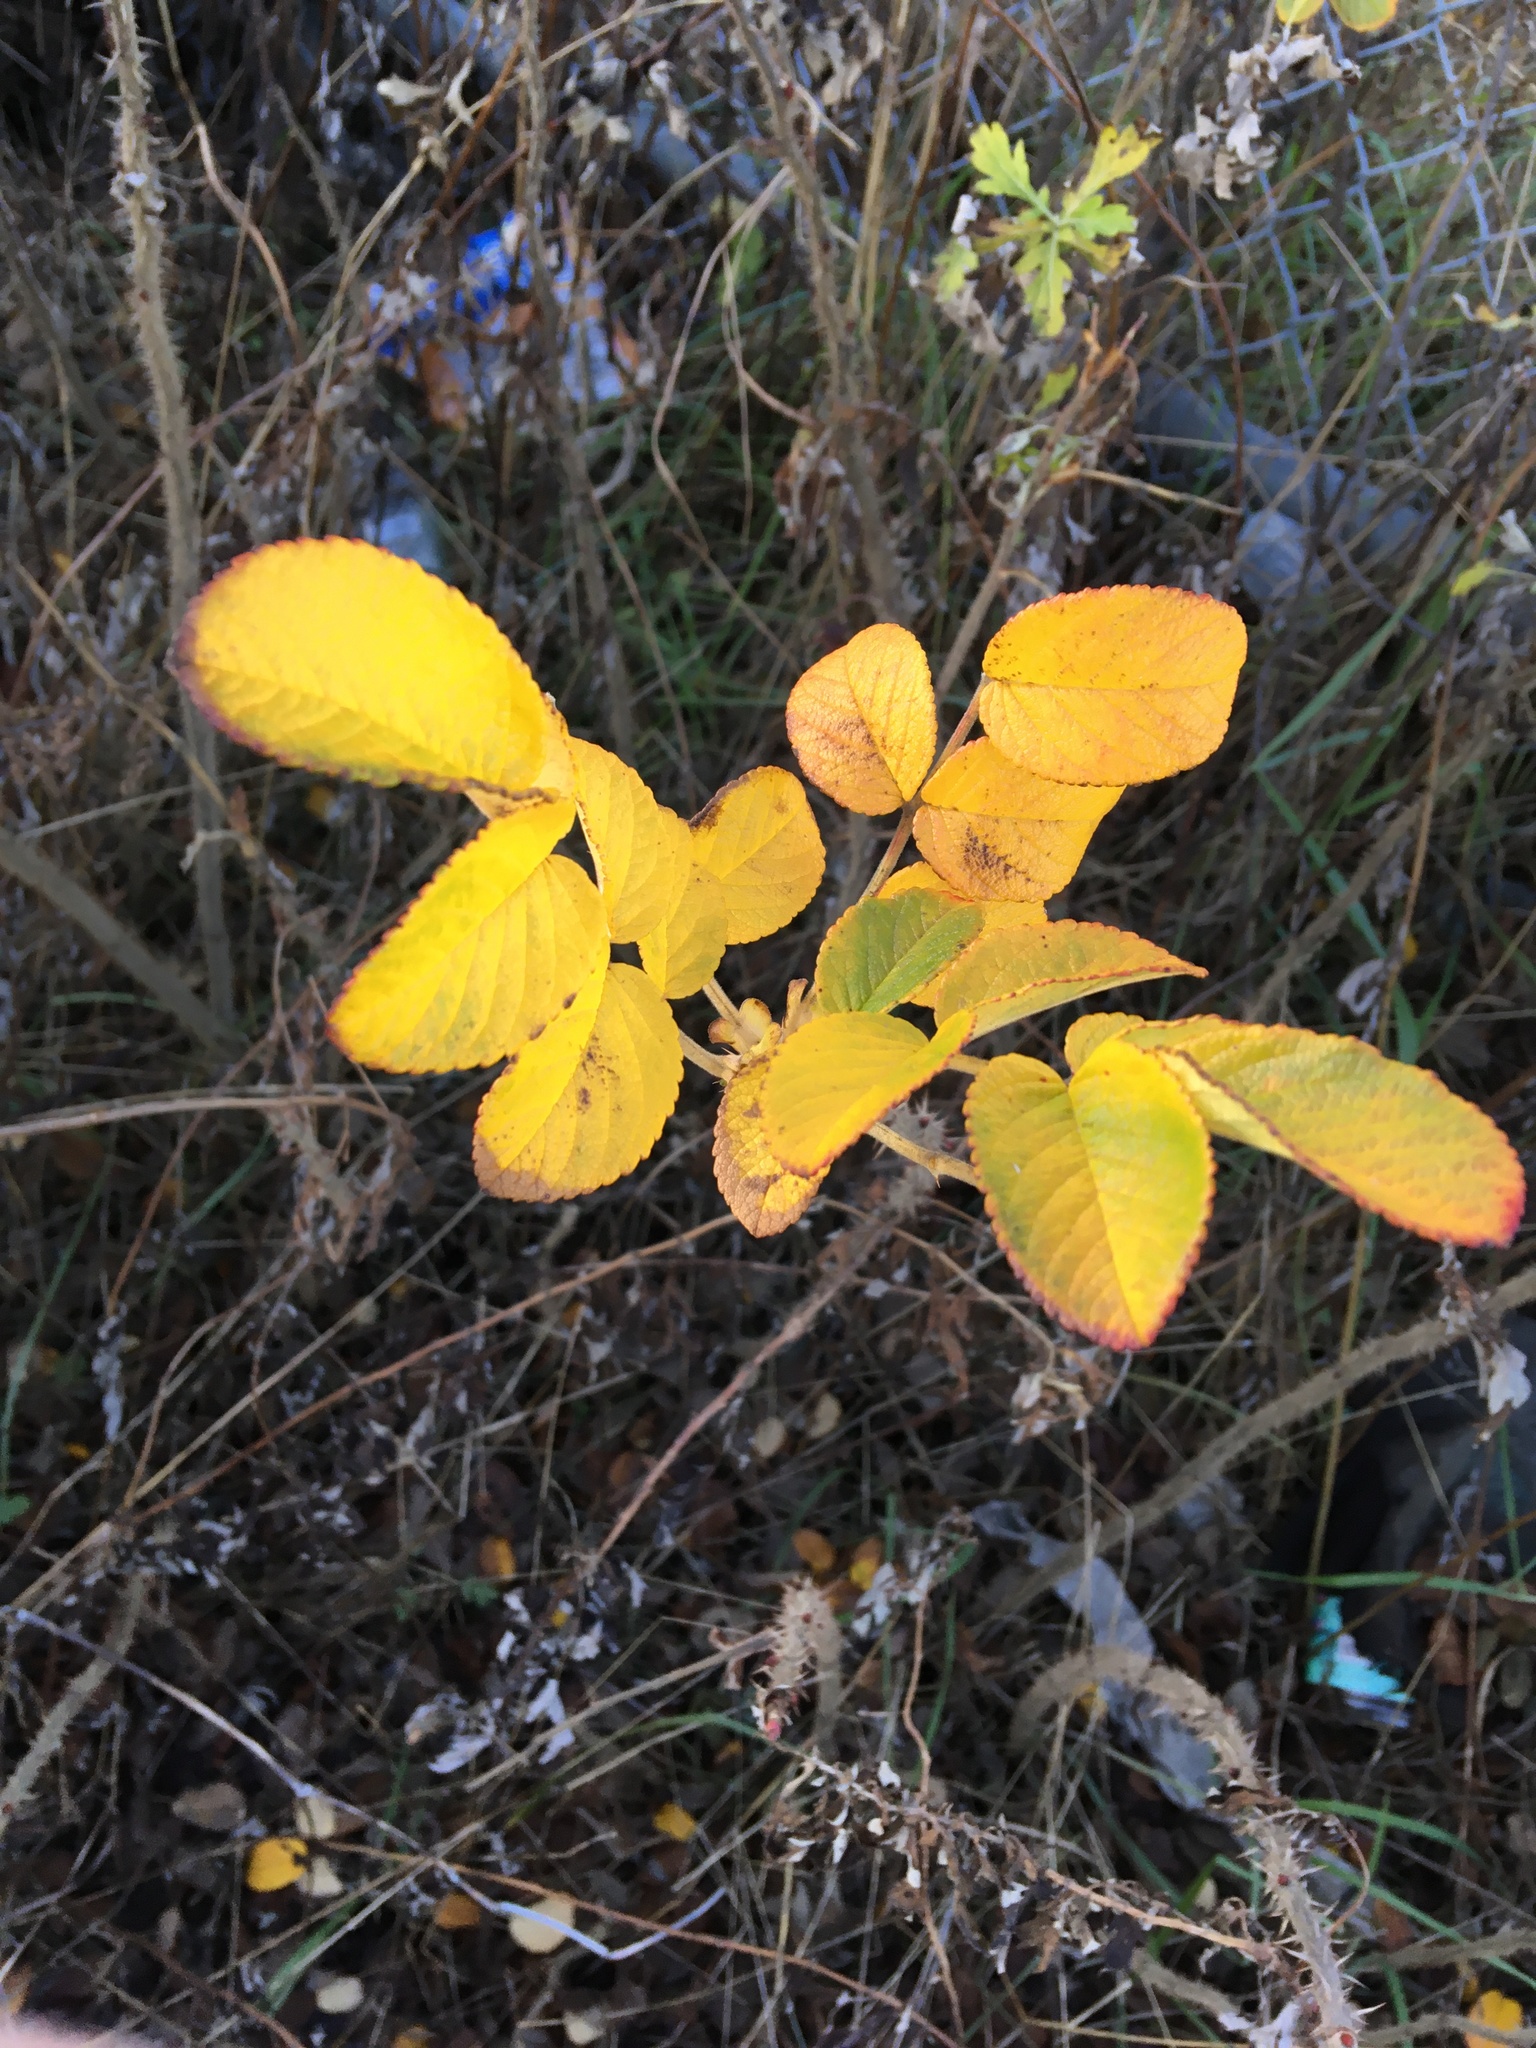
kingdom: Plantae
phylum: Tracheophyta
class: Magnoliopsida
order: Rosales
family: Rosaceae
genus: Rosa
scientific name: Rosa rugosa
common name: Japanese rose
